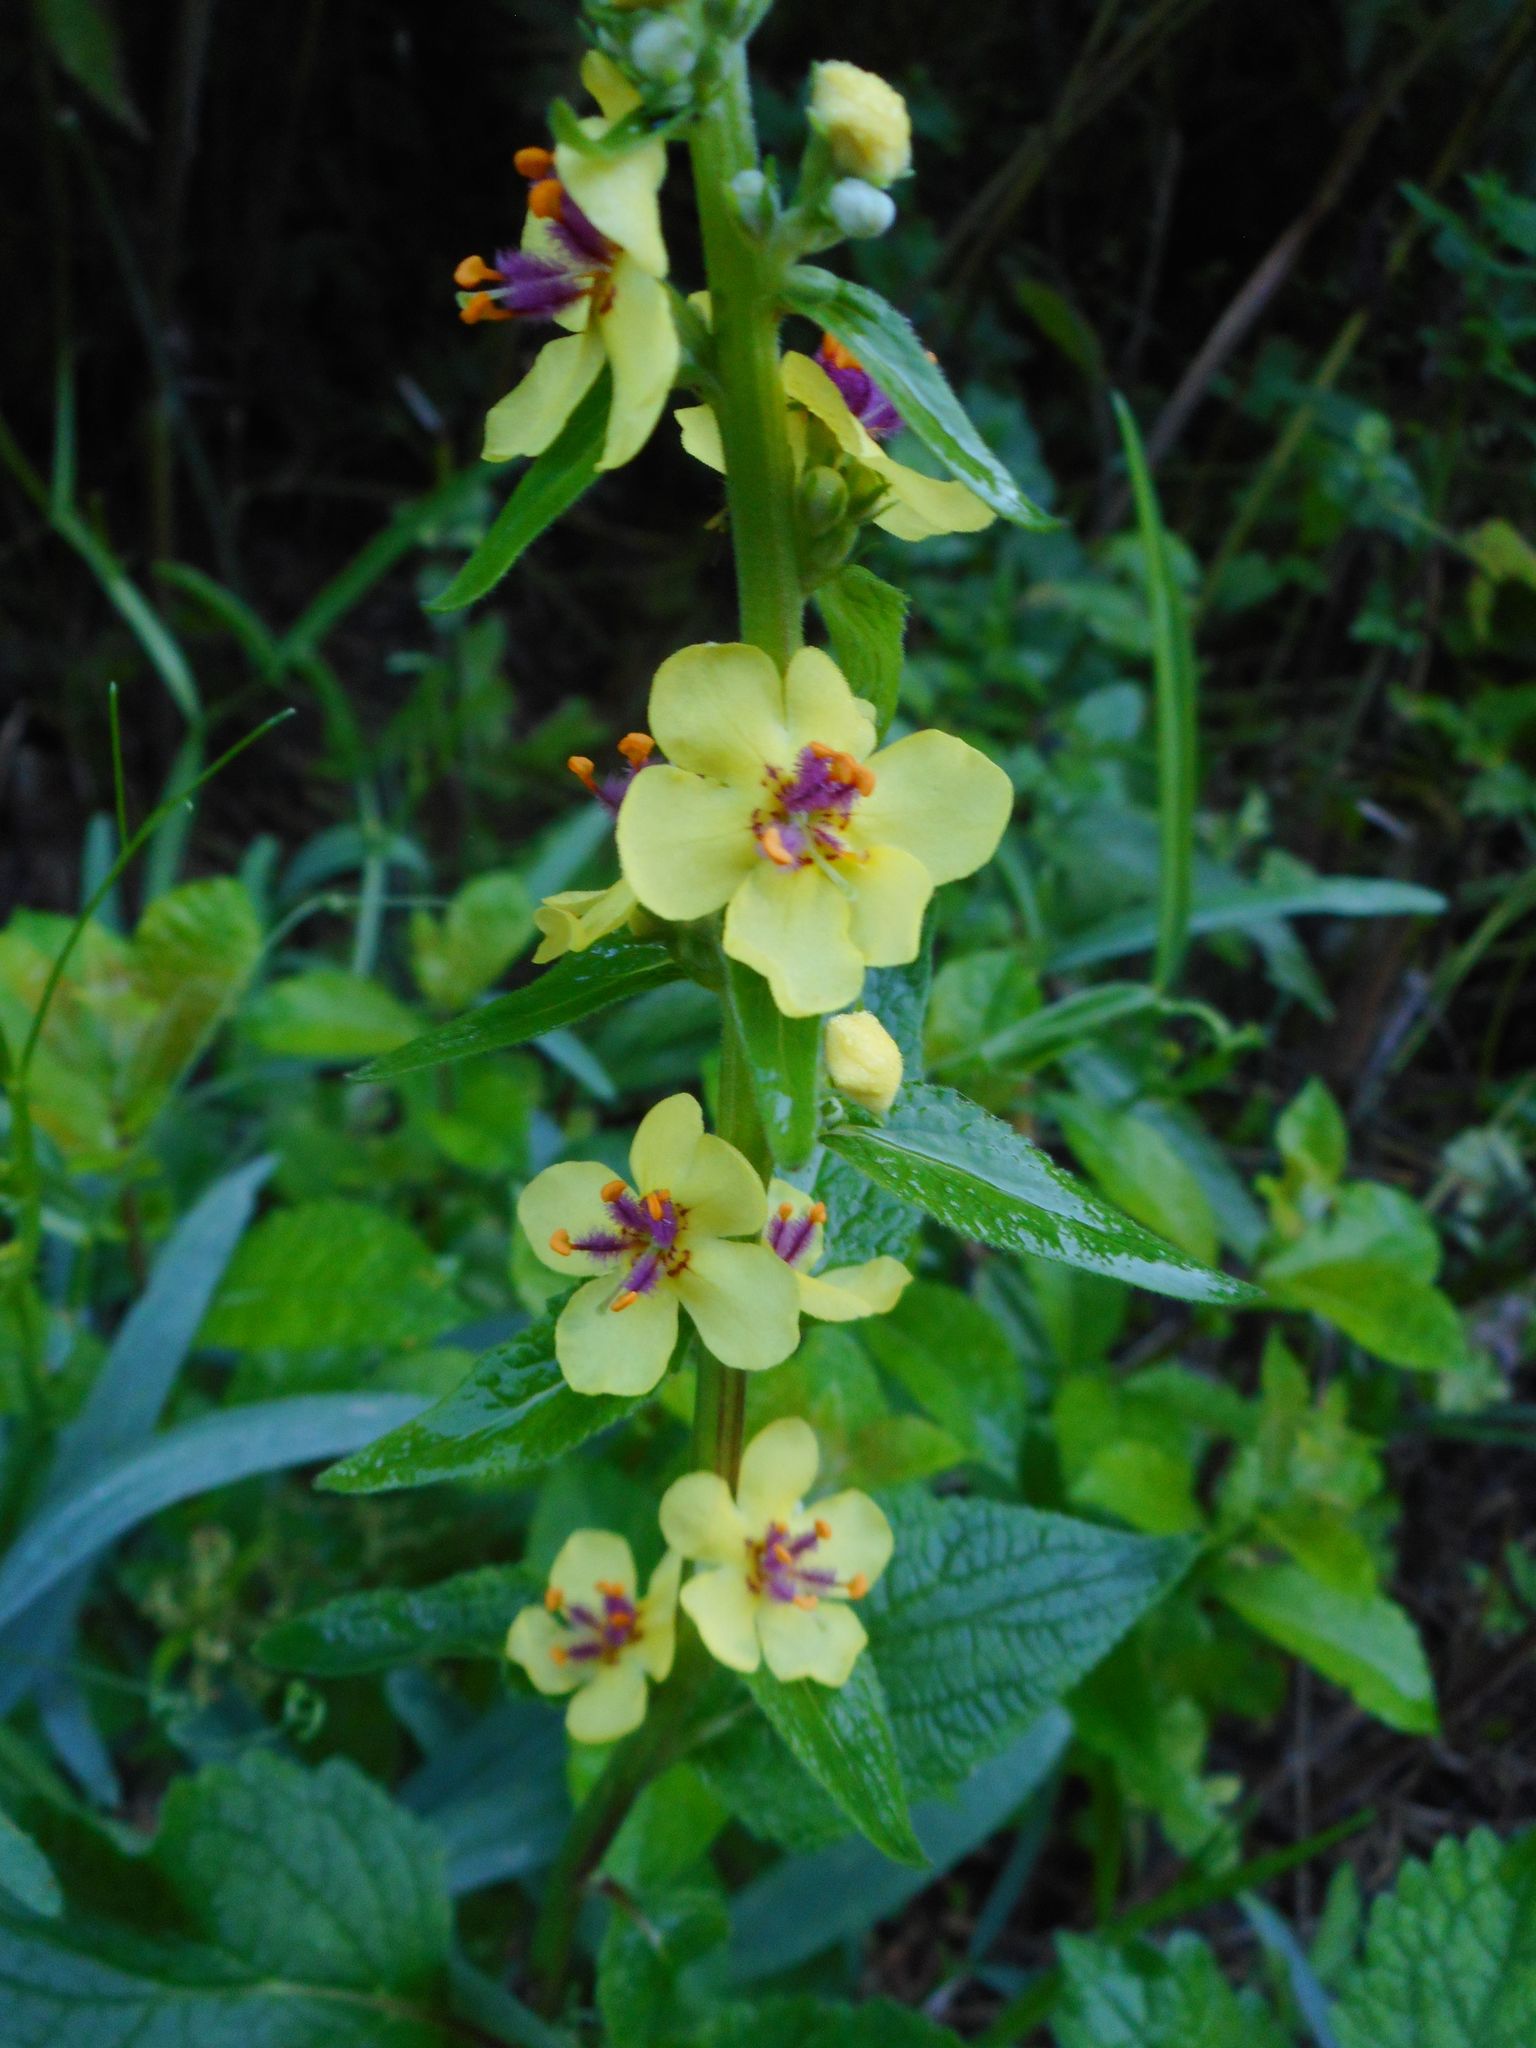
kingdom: Plantae
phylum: Tracheophyta
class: Magnoliopsida
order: Lamiales
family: Scrophulariaceae
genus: Verbascum
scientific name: Verbascum nigrum
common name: Dark mullein
